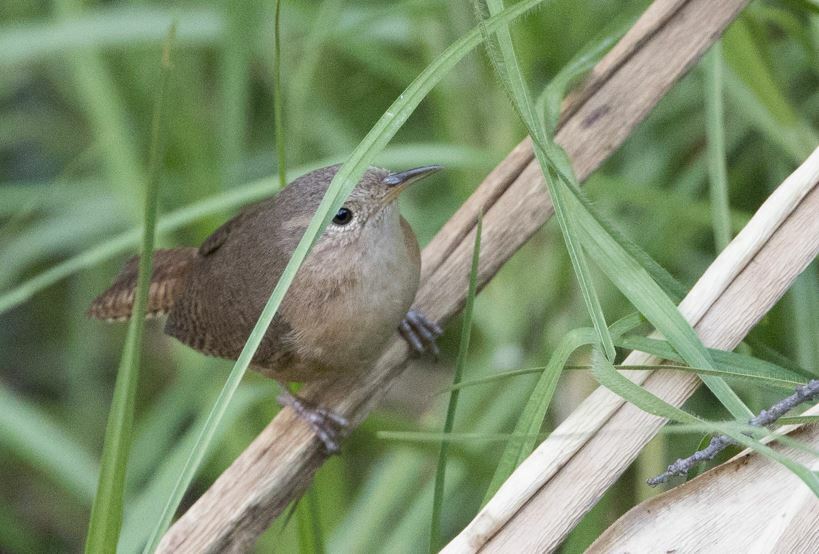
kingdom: Animalia
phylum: Chordata
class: Aves
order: Passeriformes
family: Troglodytidae
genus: Troglodytes
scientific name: Troglodytes aedon
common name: House wren
